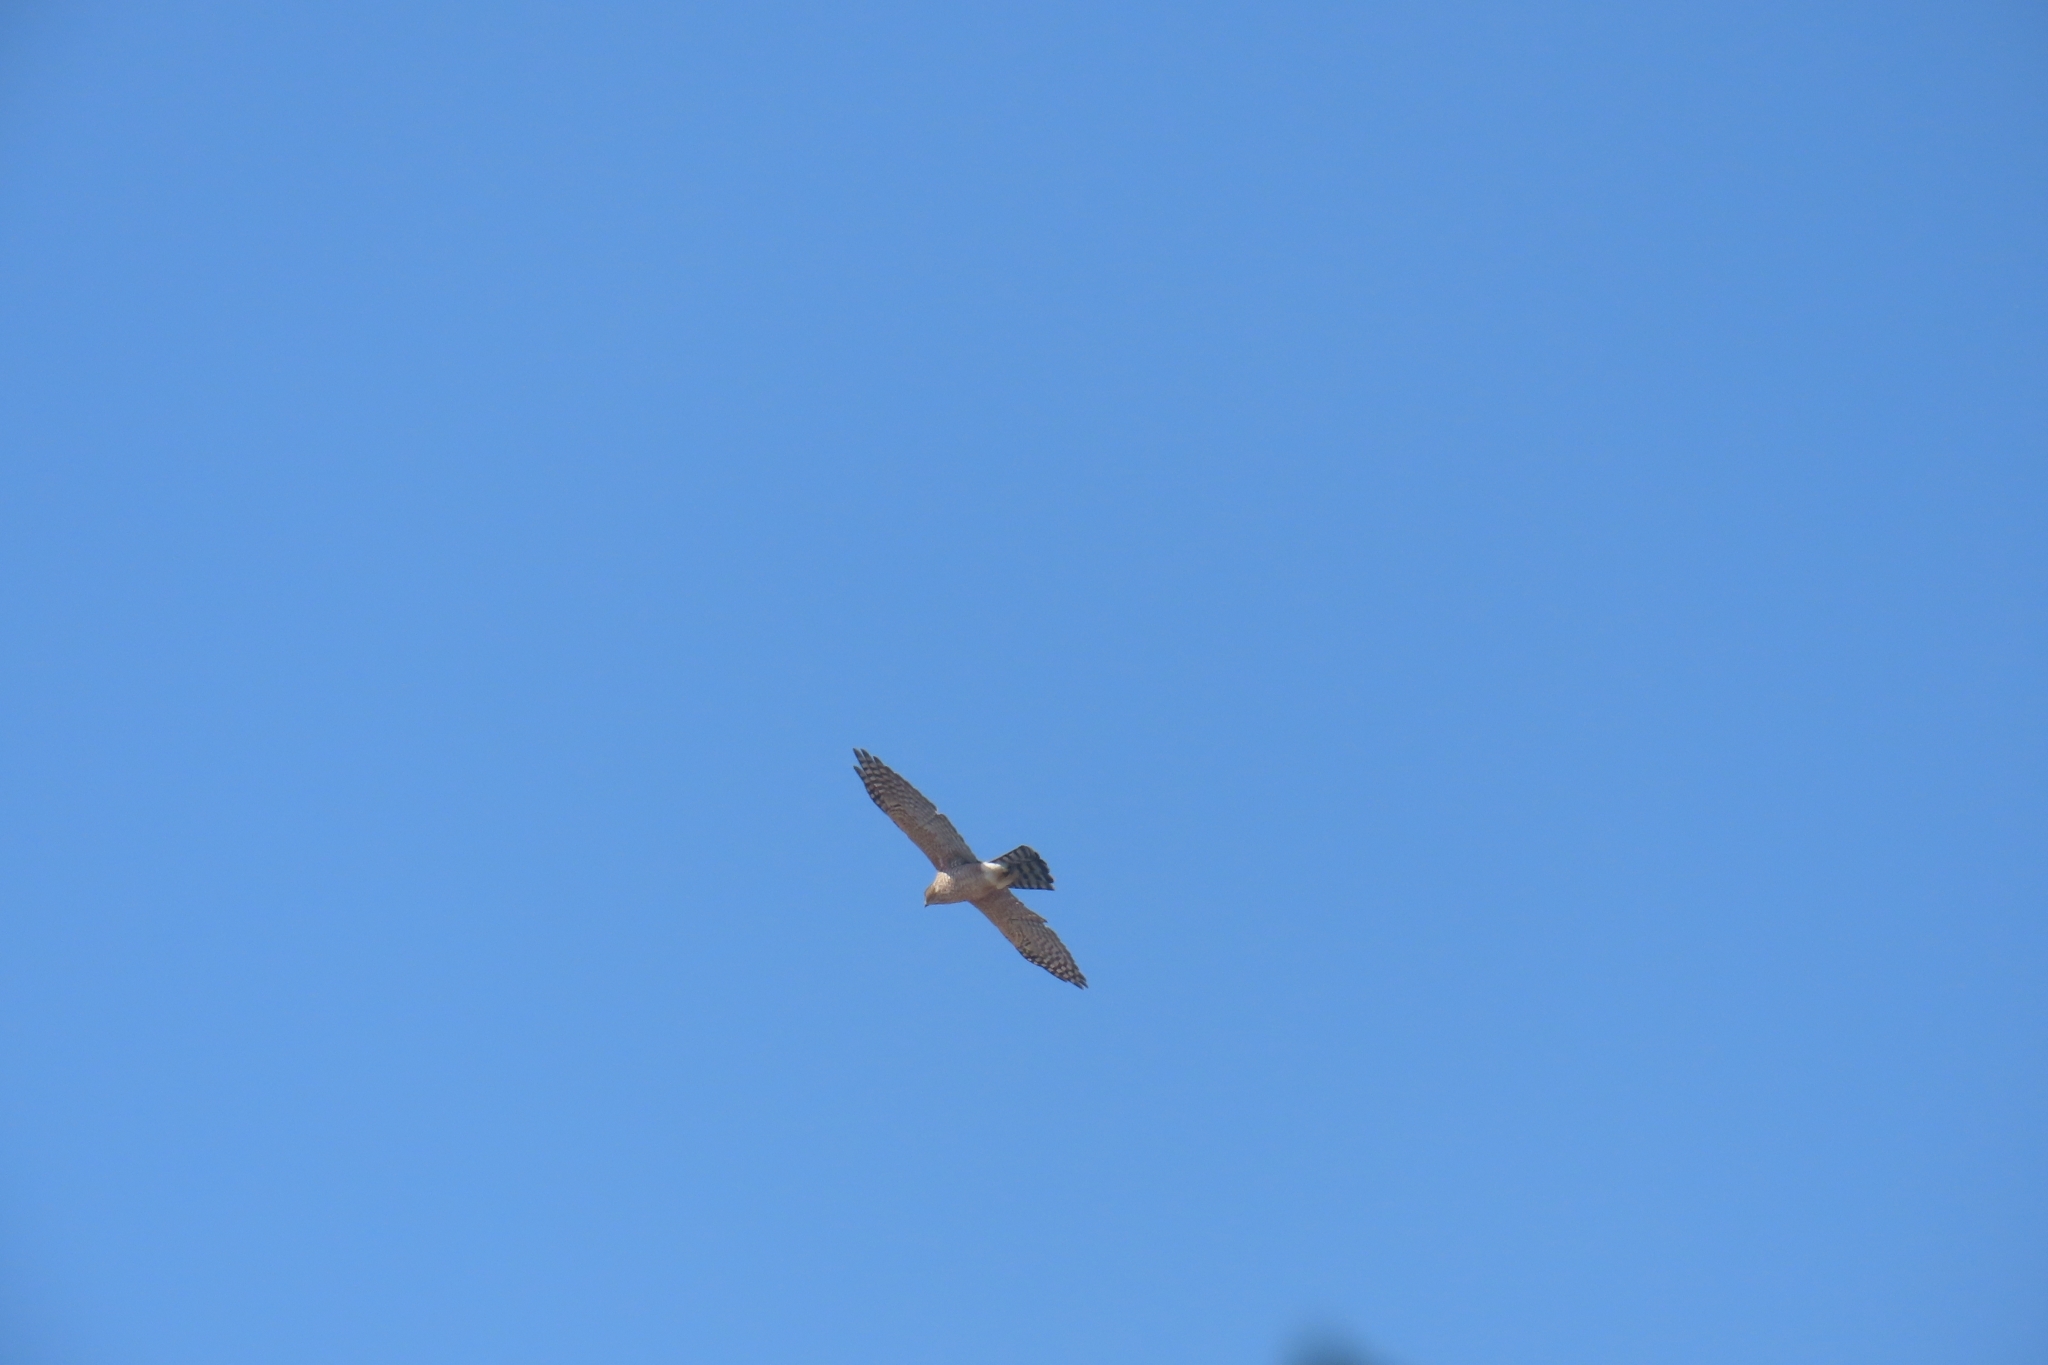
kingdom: Animalia
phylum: Chordata
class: Aves
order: Accipitriformes
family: Accipitridae
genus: Accipiter
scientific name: Accipiter cooperii
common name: Cooper's hawk
